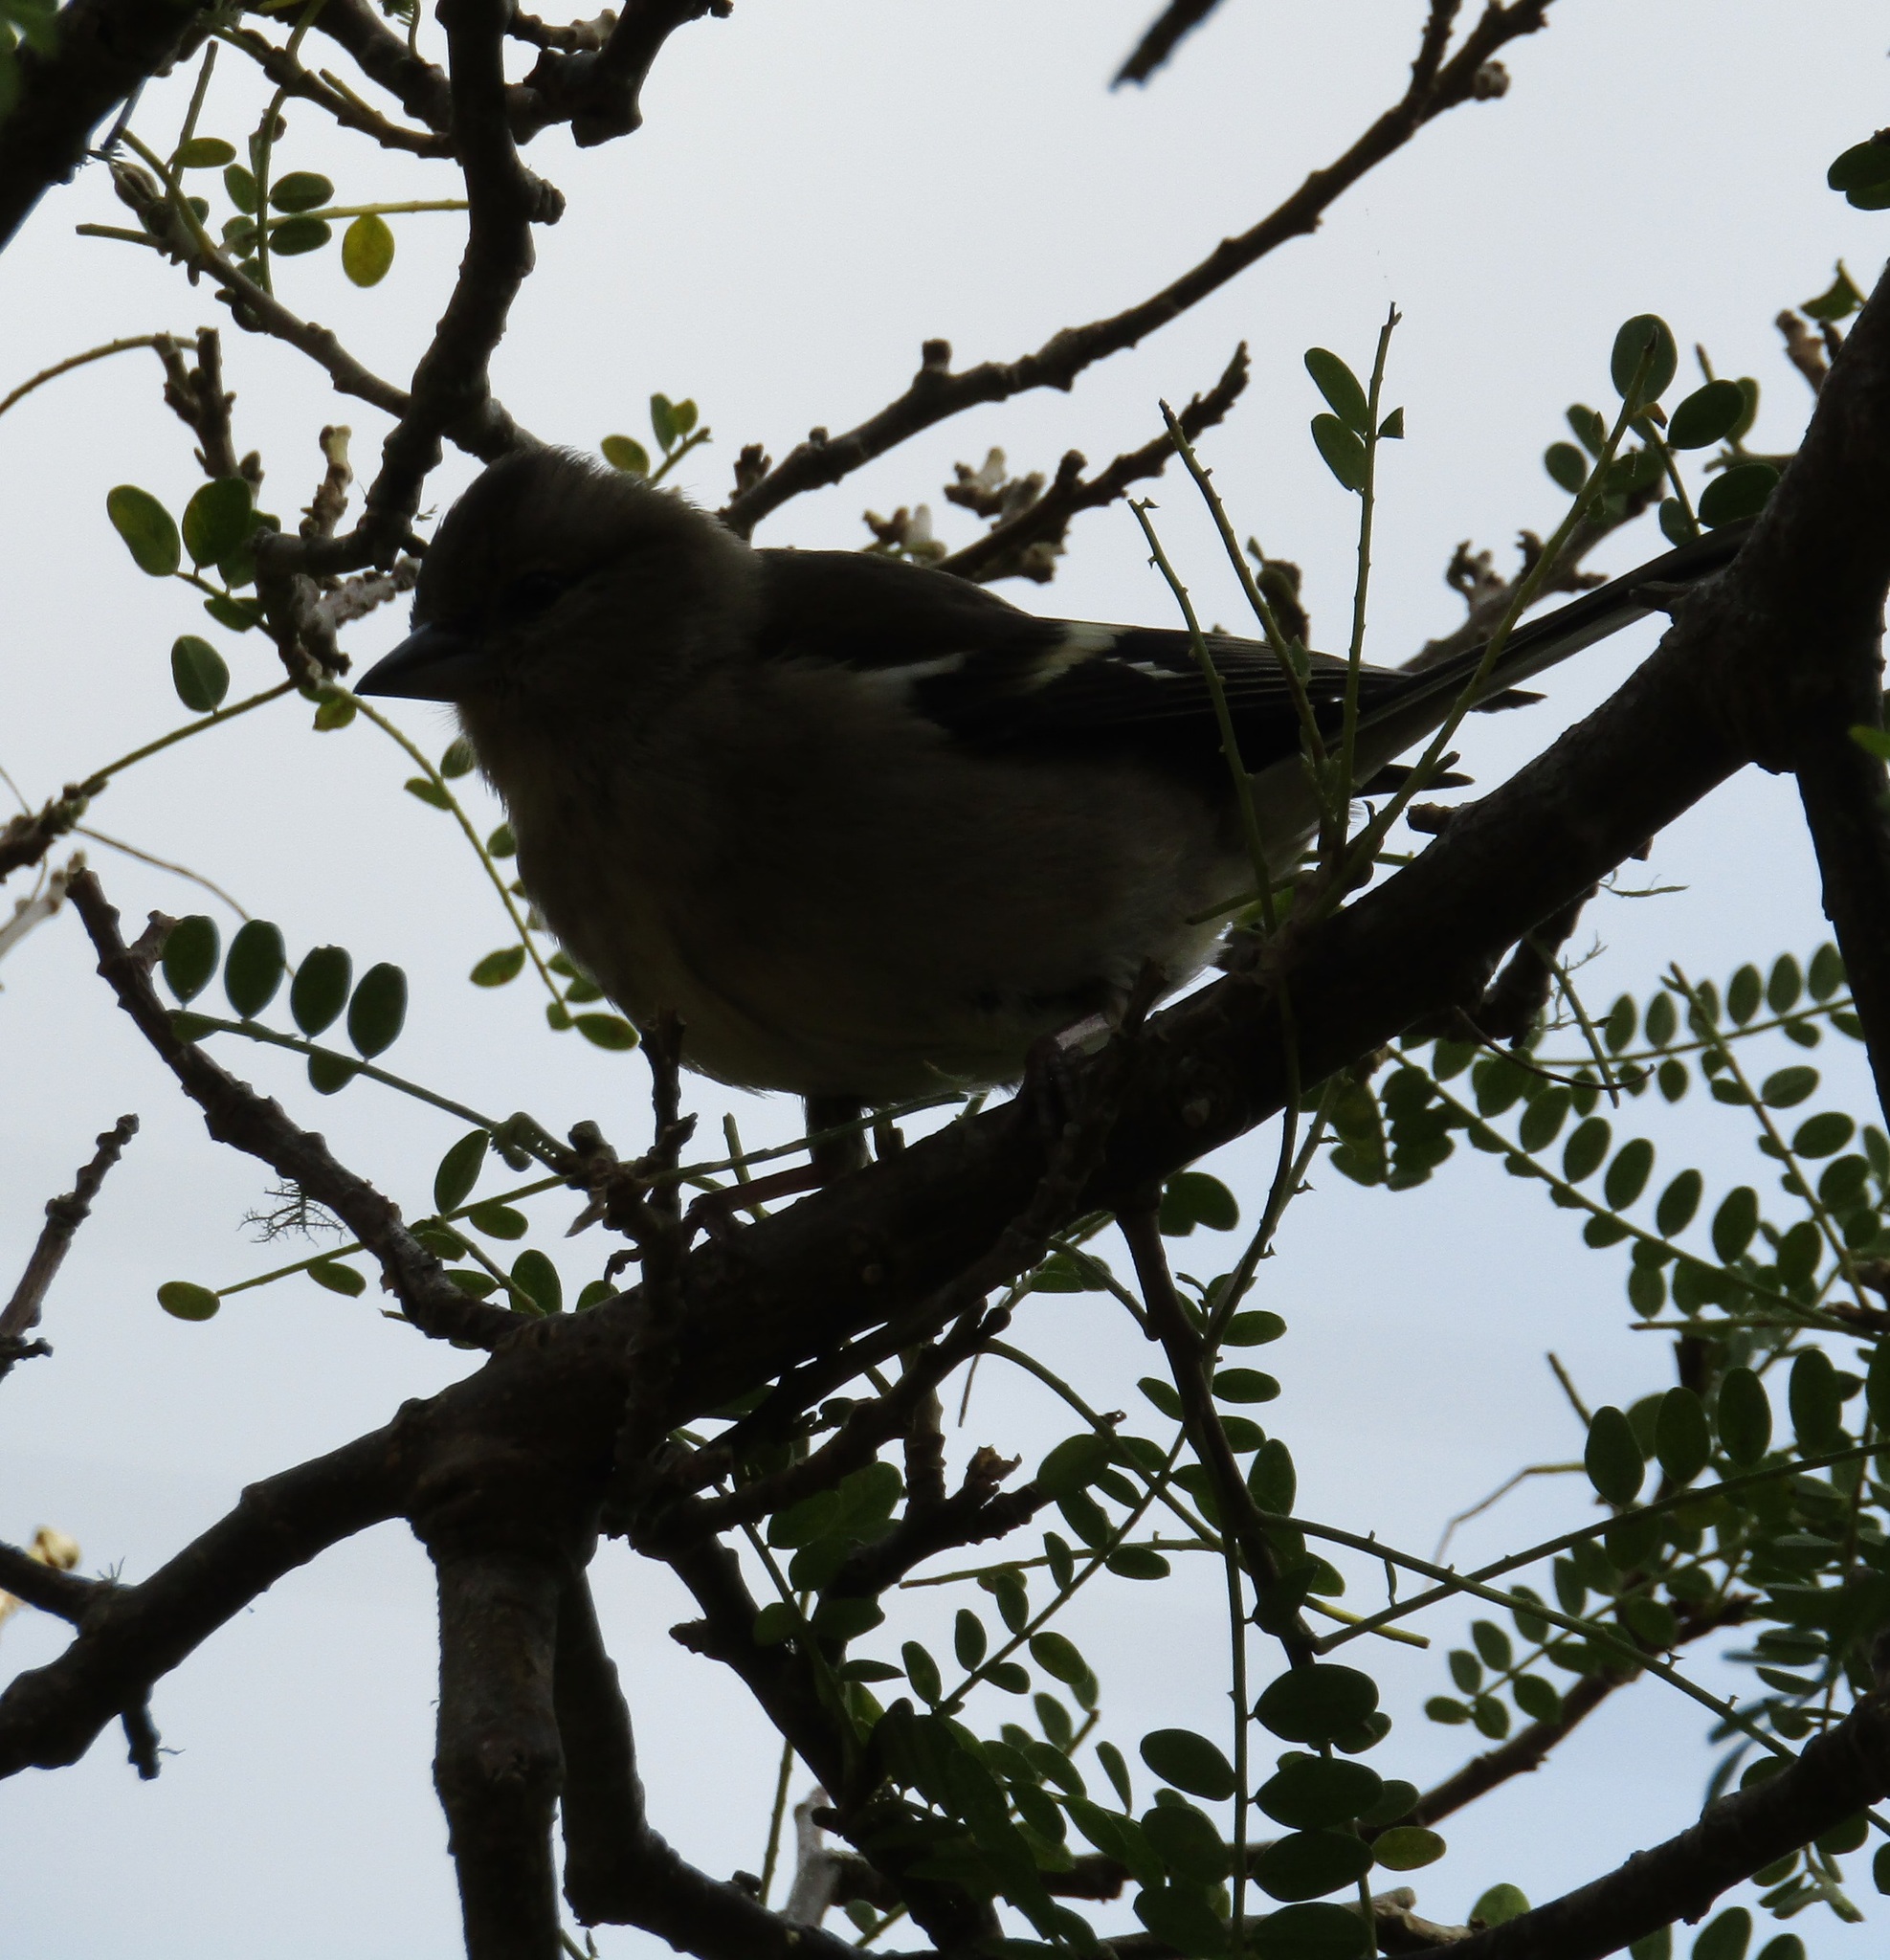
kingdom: Animalia
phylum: Chordata
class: Aves
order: Passeriformes
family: Fringillidae
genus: Fringilla
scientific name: Fringilla coelebs
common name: Common chaffinch
